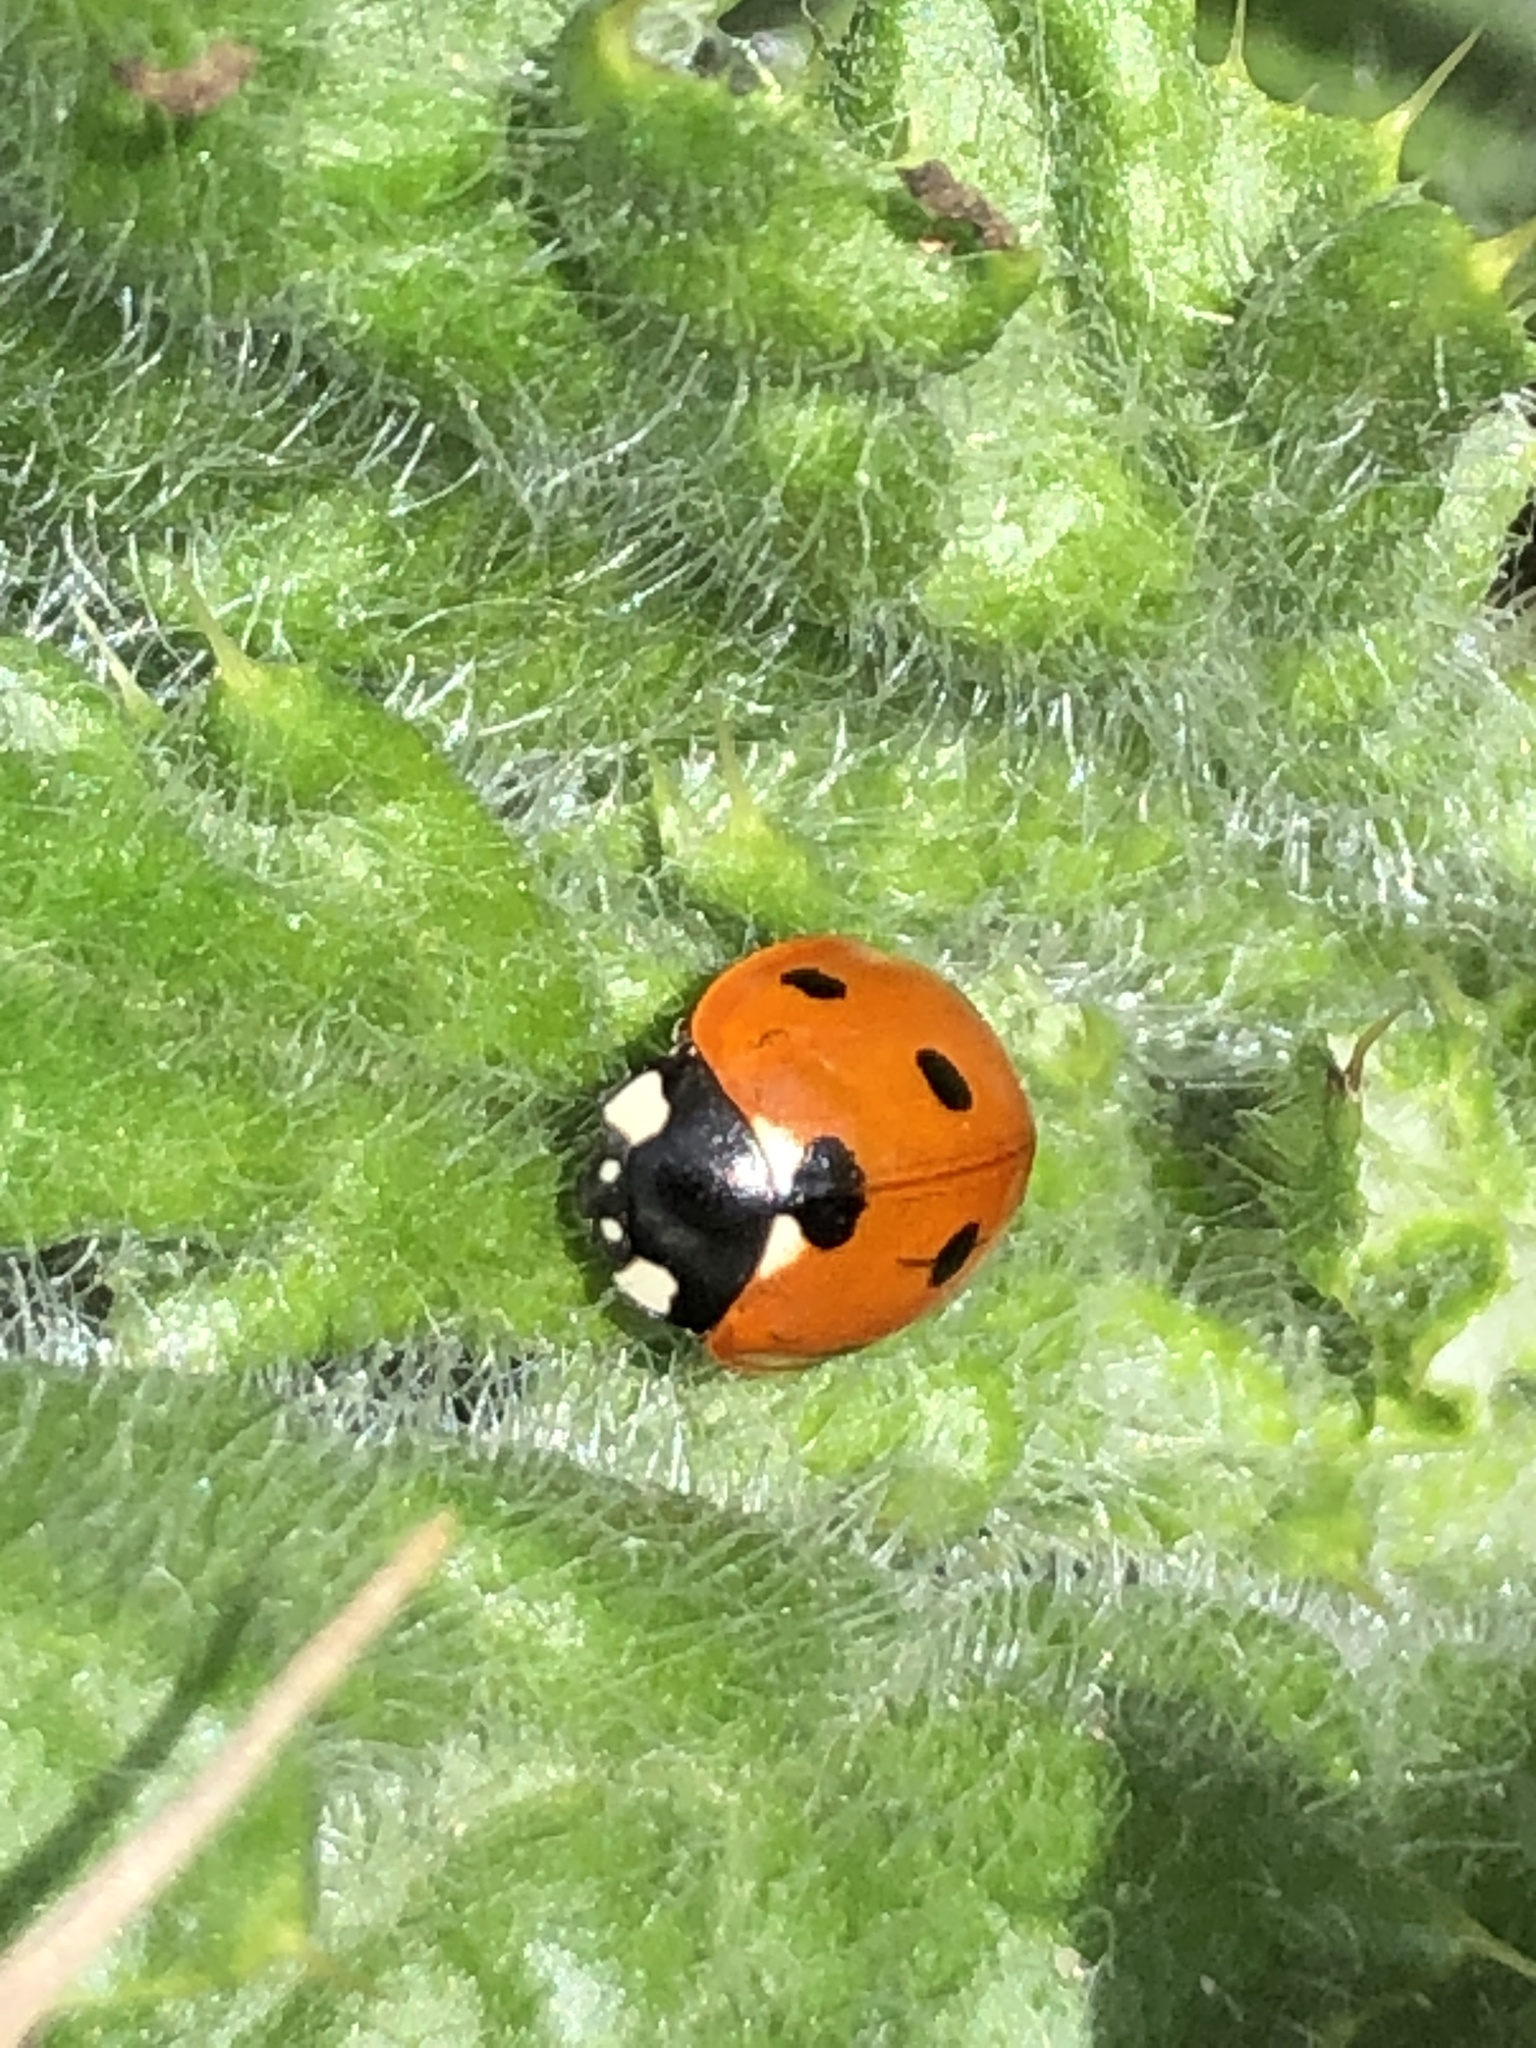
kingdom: Animalia
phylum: Arthropoda
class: Insecta
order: Coleoptera
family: Coccinellidae
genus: Coccinella
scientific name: Coccinella septempunctata
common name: Sevenspotted lady beetle
